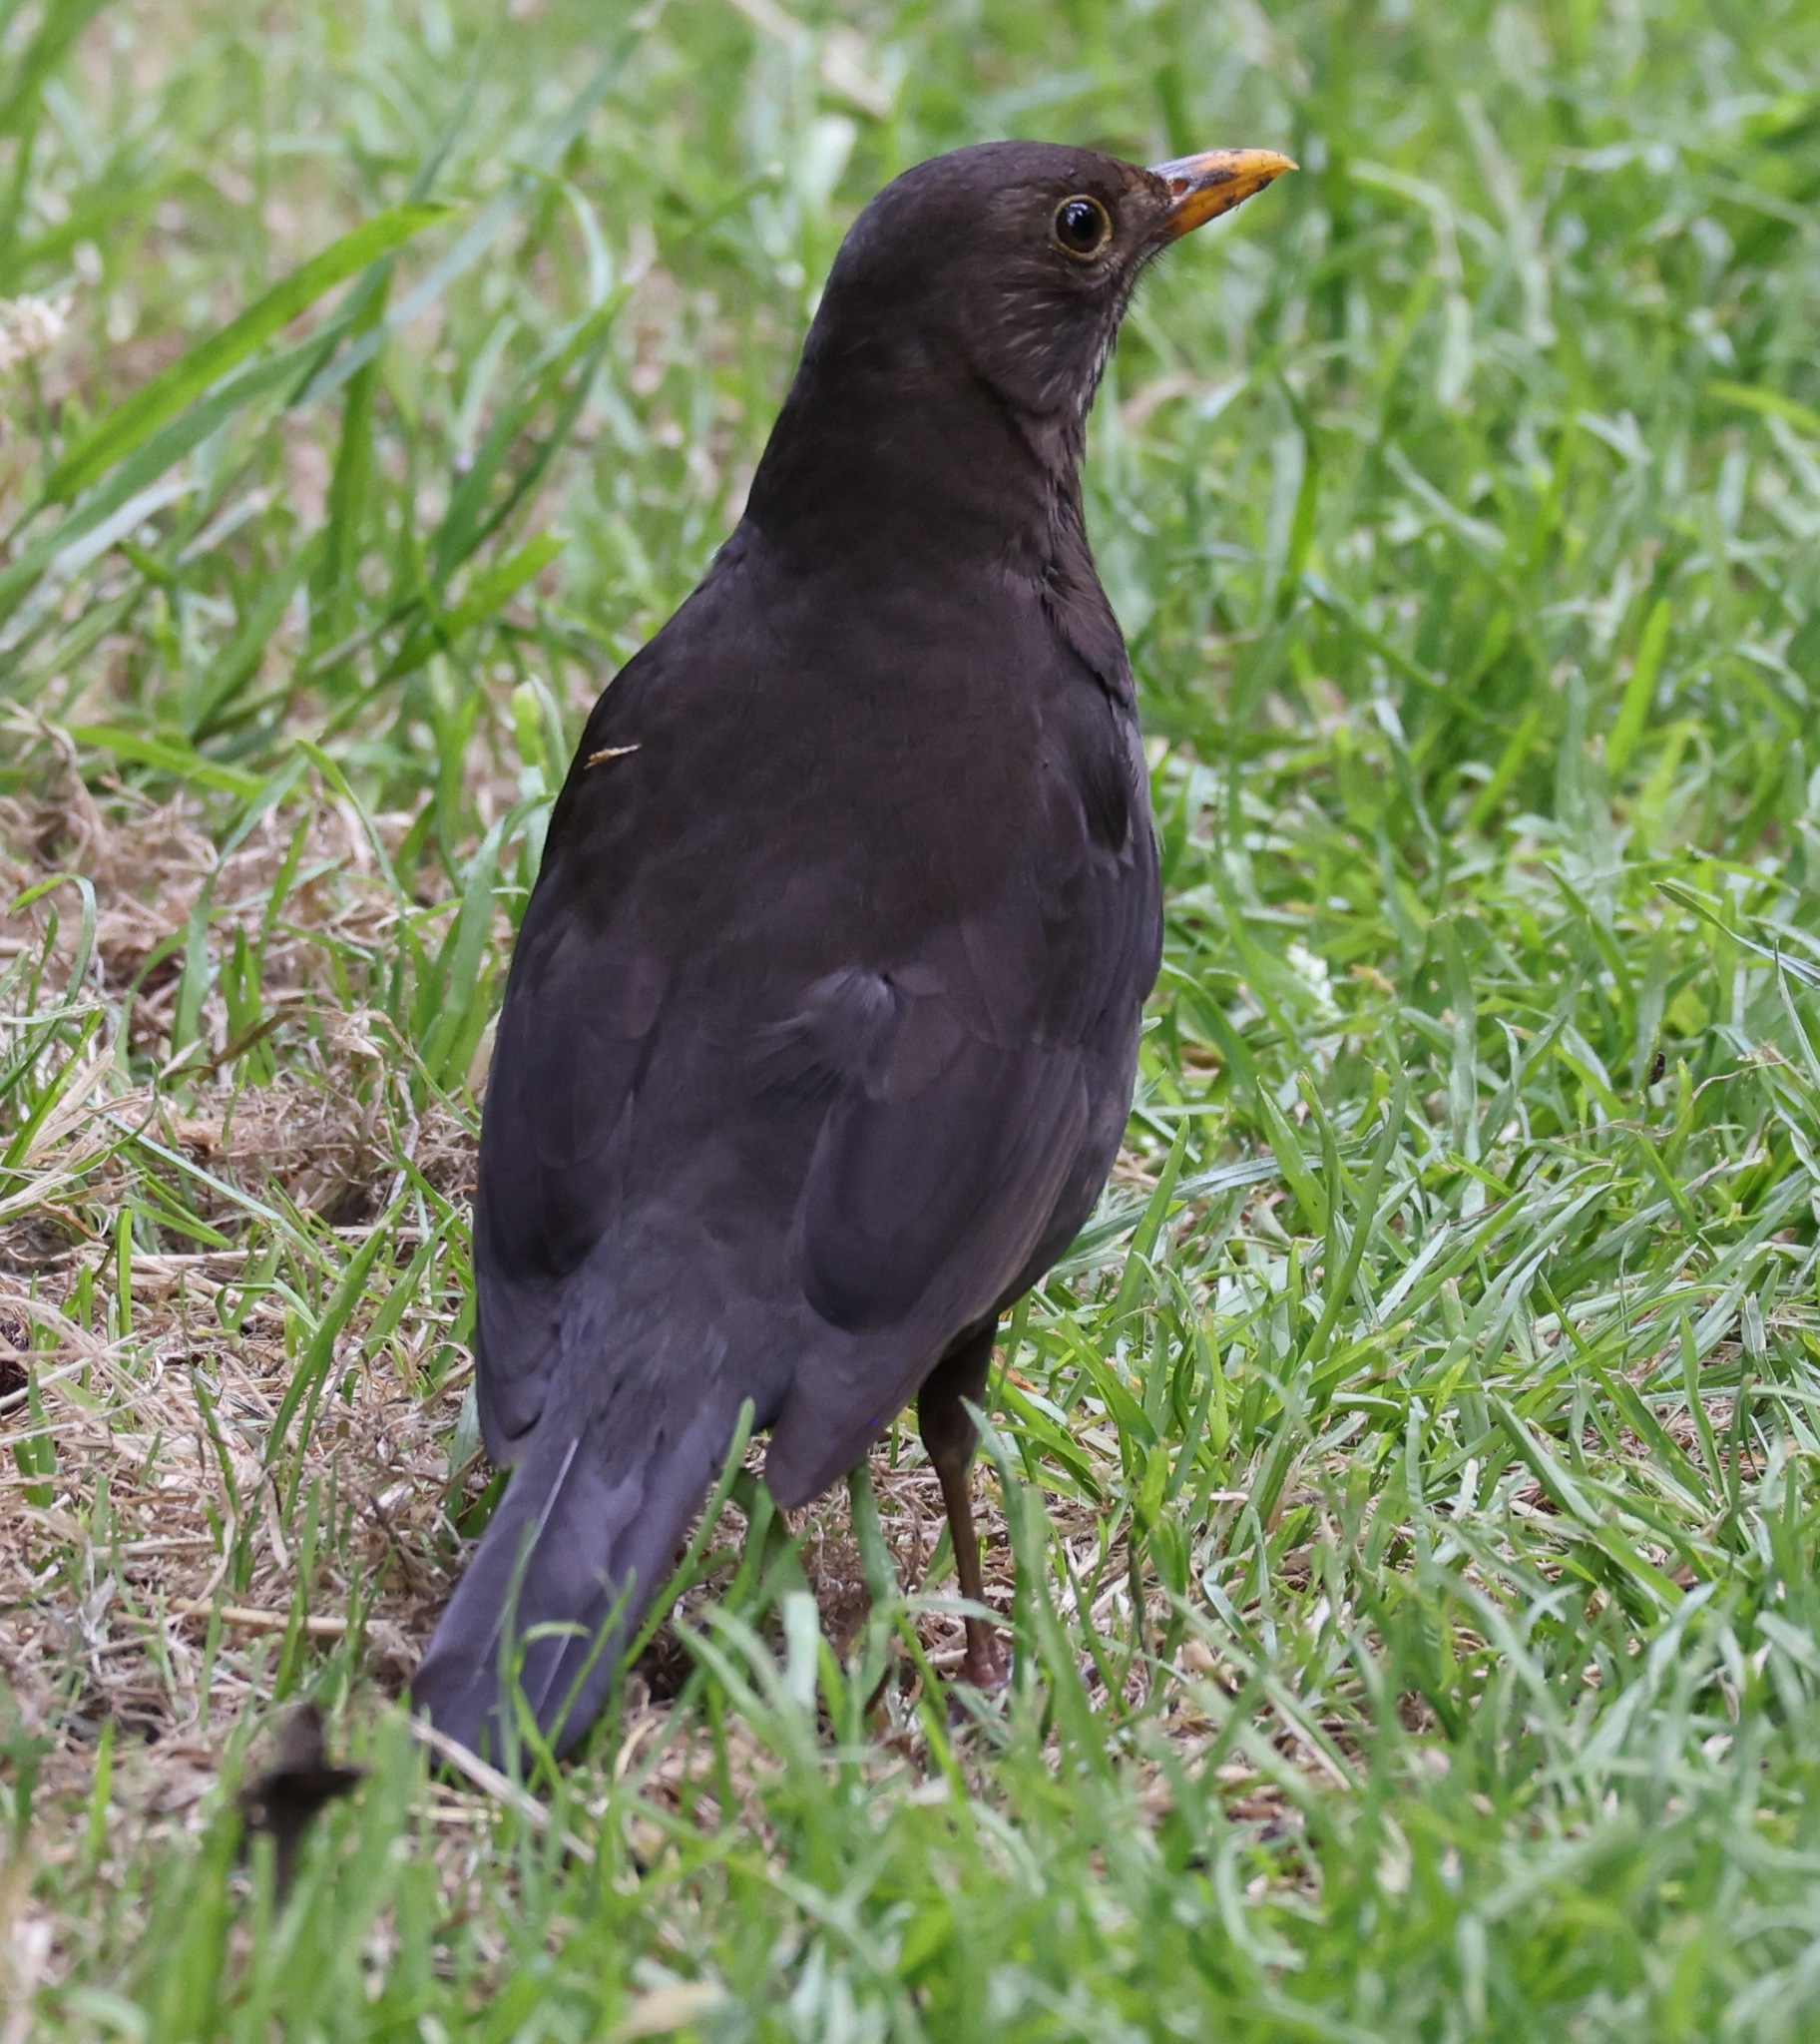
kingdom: Animalia
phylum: Chordata
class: Aves
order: Passeriformes
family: Turdidae
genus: Turdus
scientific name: Turdus merula
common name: Common blackbird
